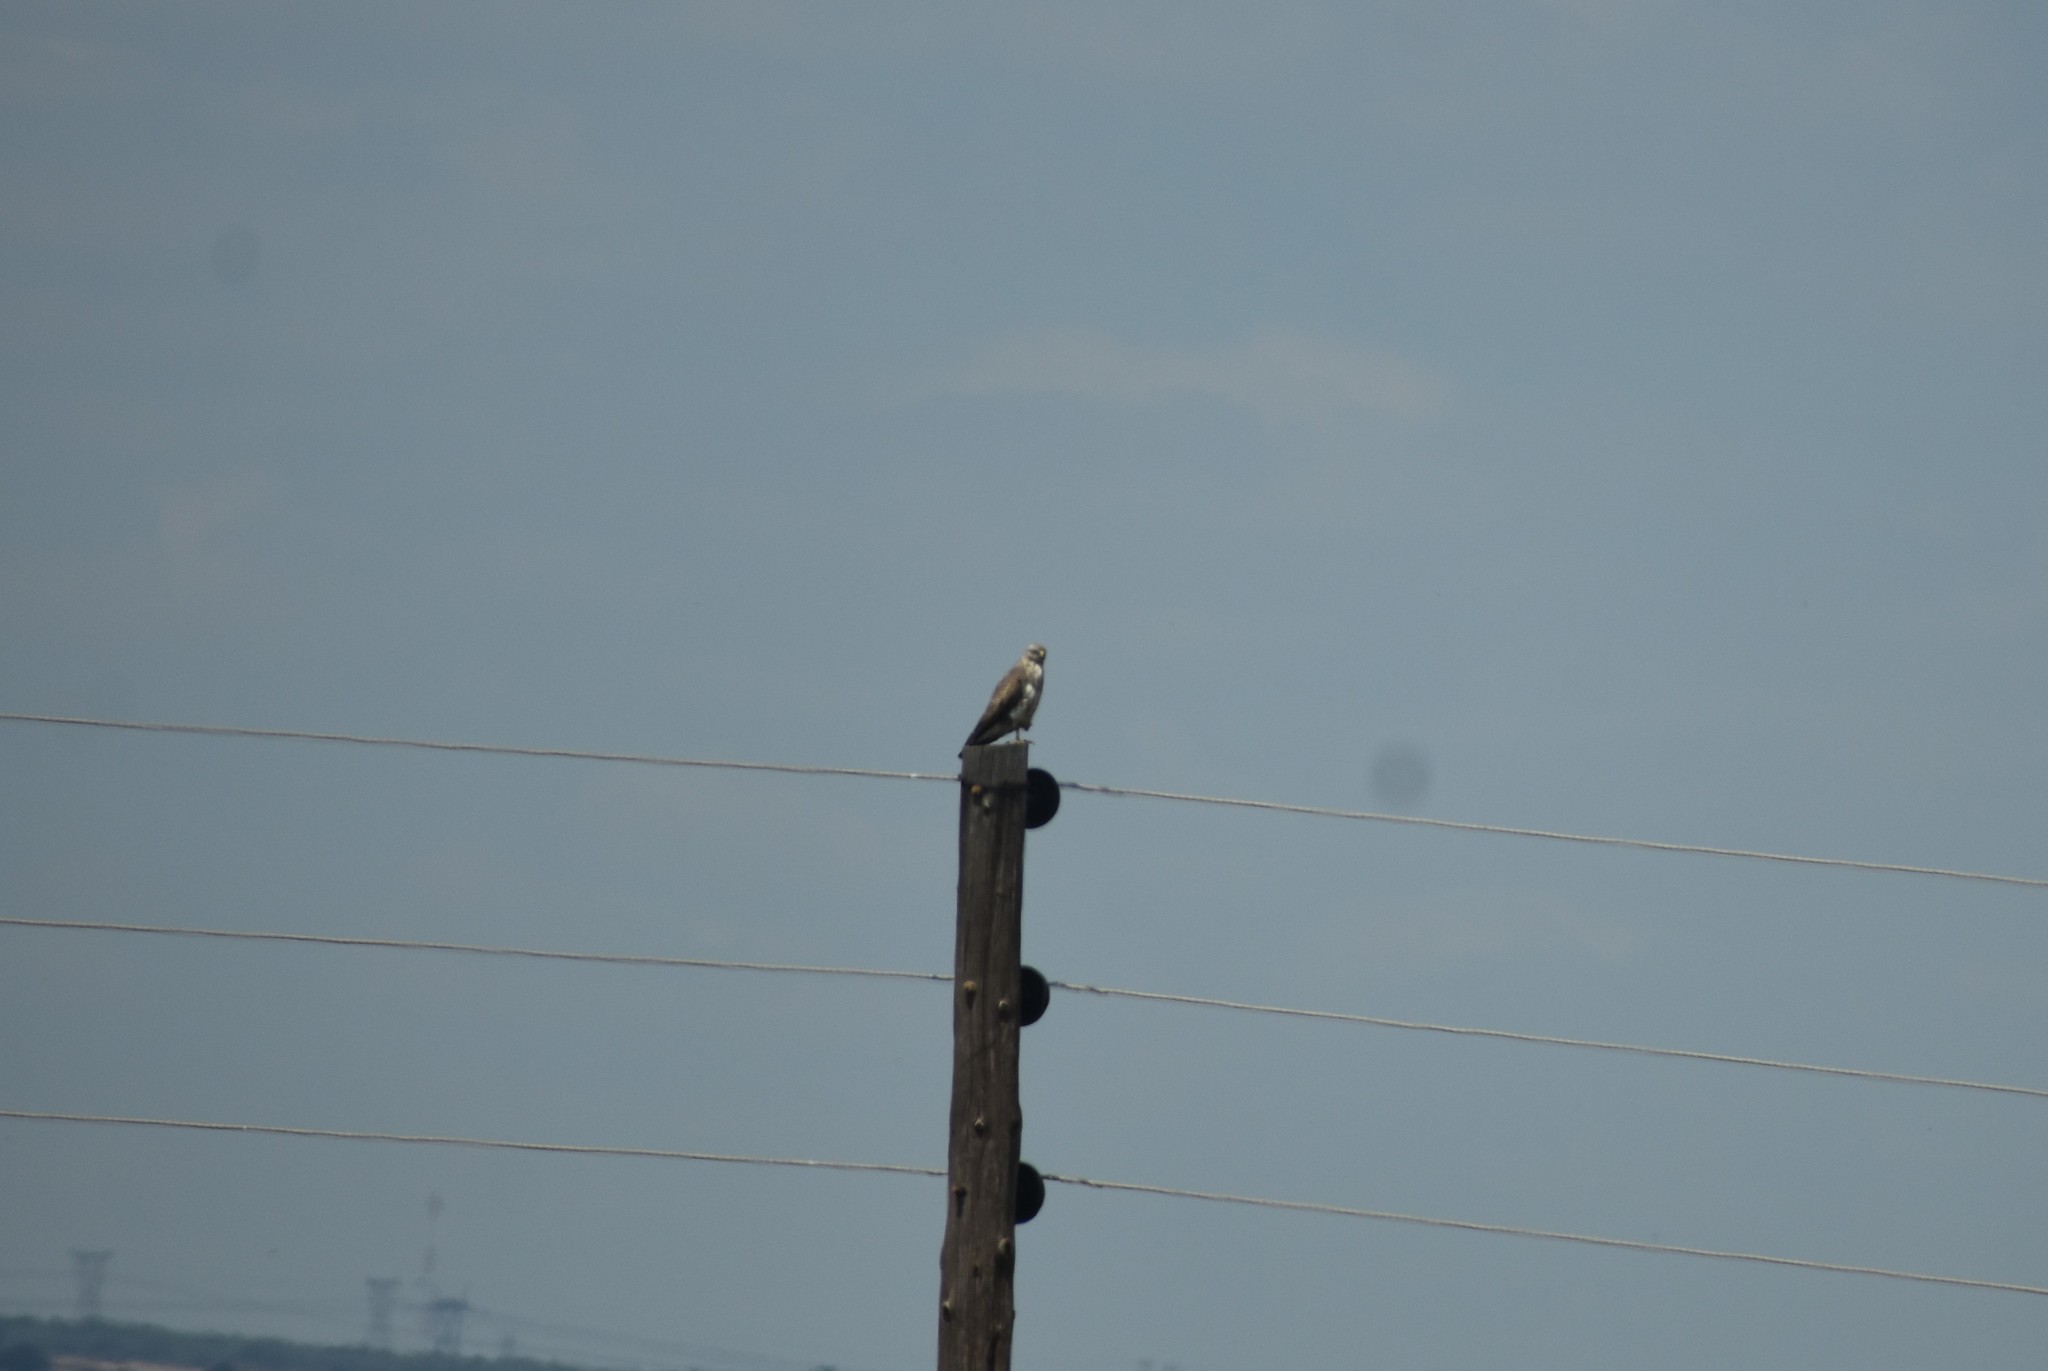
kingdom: Animalia
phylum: Chordata
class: Aves
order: Accipitriformes
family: Accipitridae
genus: Buteo
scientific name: Buteo buteo
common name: Common buzzard
